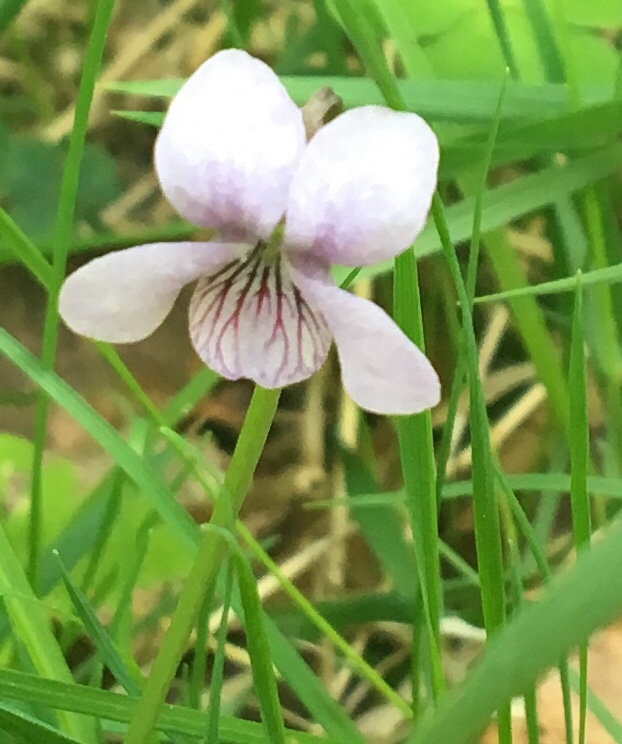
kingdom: Plantae
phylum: Tracheophyta
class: Magnoliopsida
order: Malpighiales
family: Violaceae
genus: Viola
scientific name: Viola palustris
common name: Marsh violet
